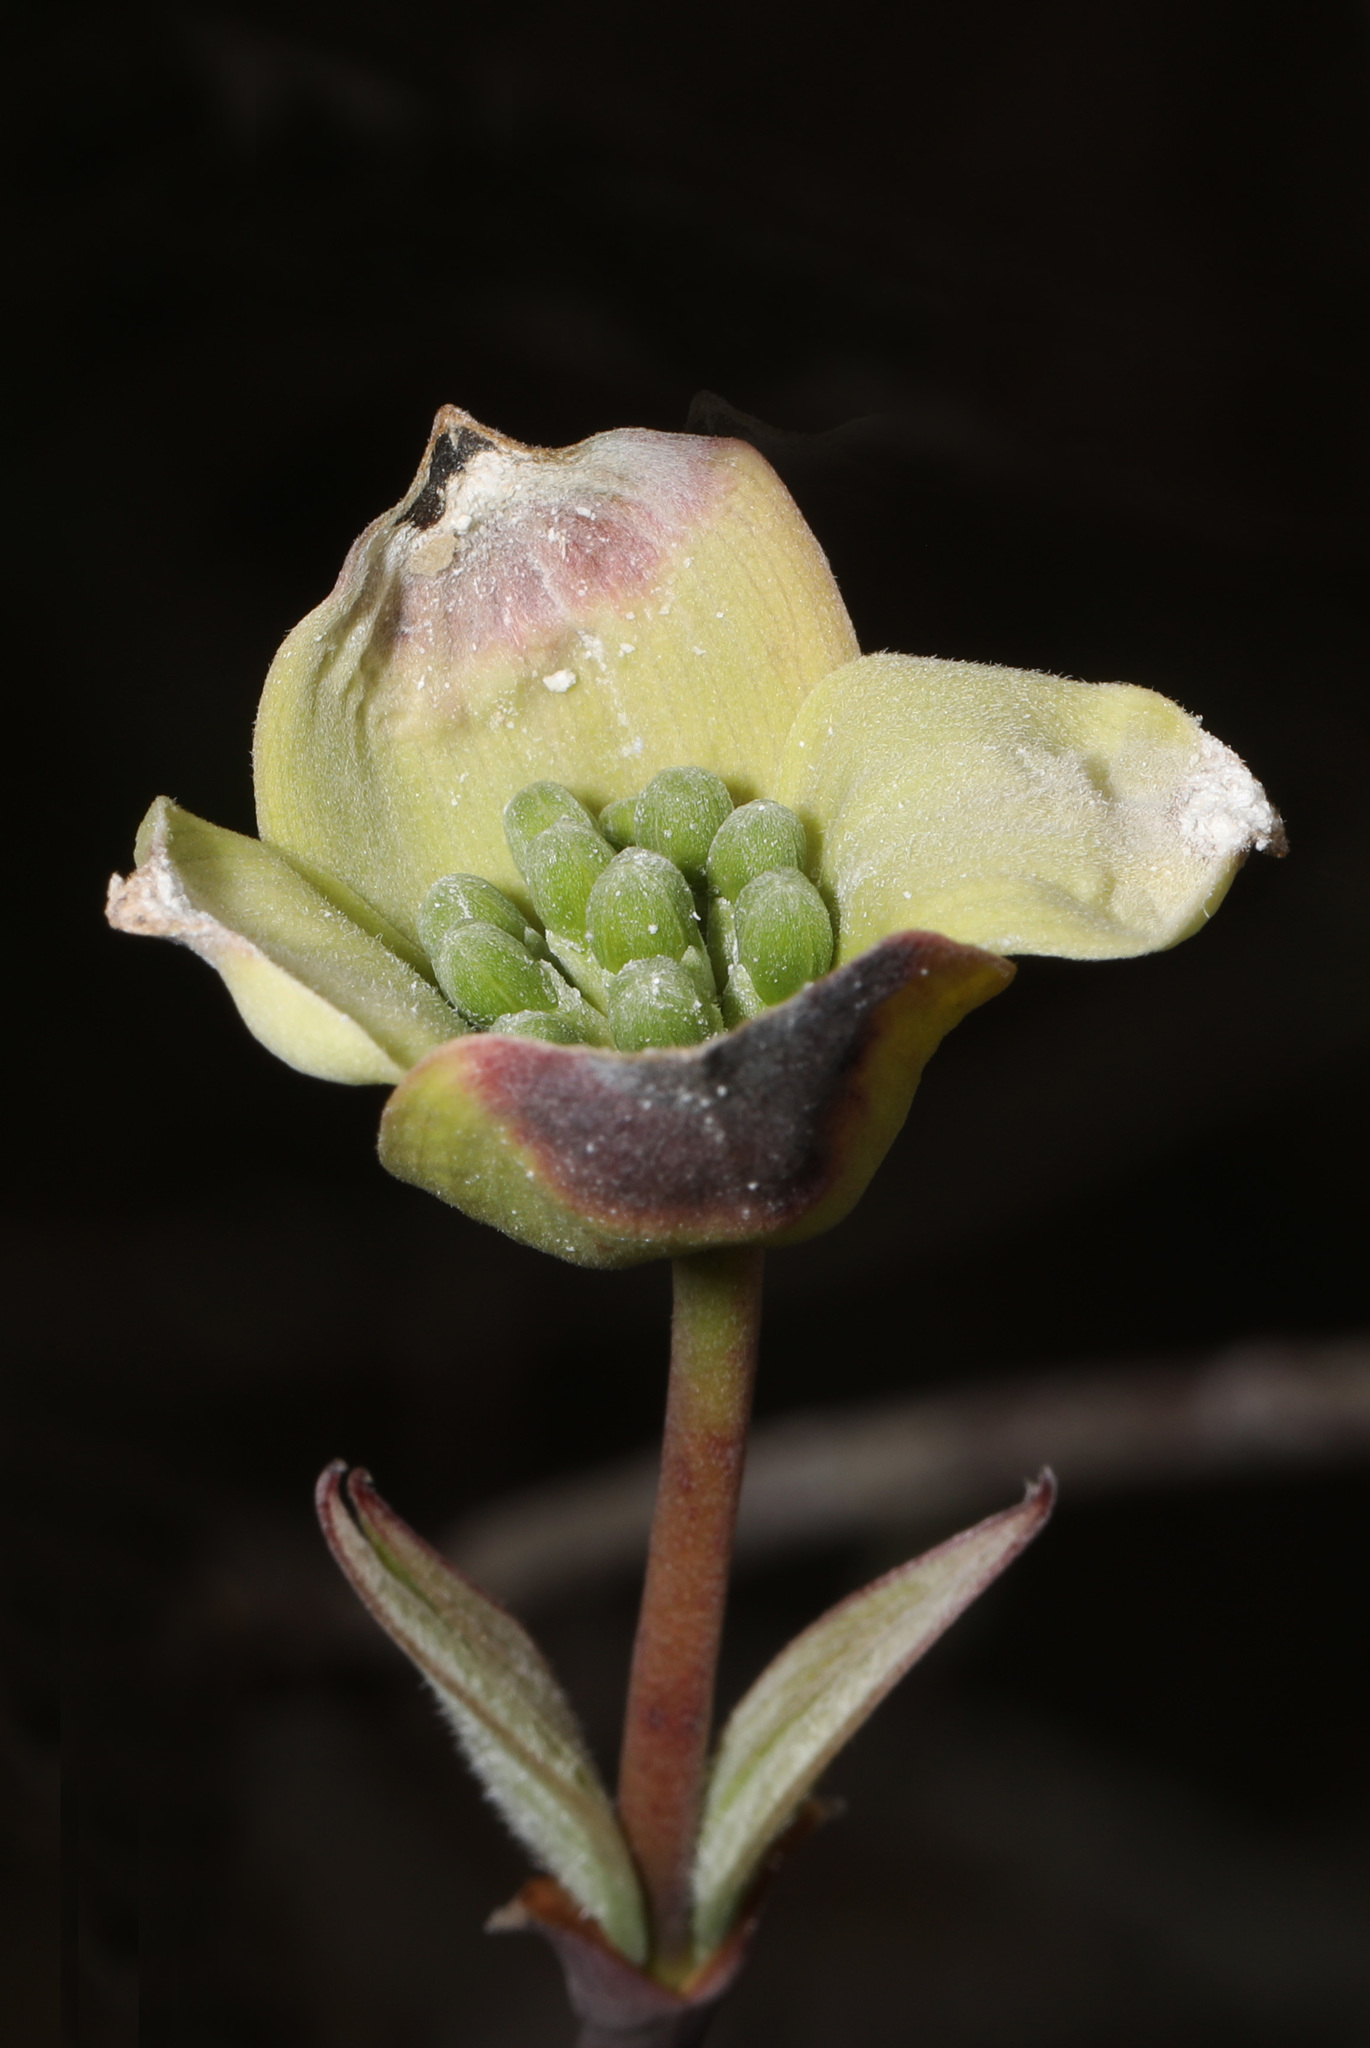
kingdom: Plantae
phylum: Tracheophyta
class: Magnoliopsida
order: Cornales
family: Cornaceae
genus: Cornus
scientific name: Cornus florida
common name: Flowering dogwood
